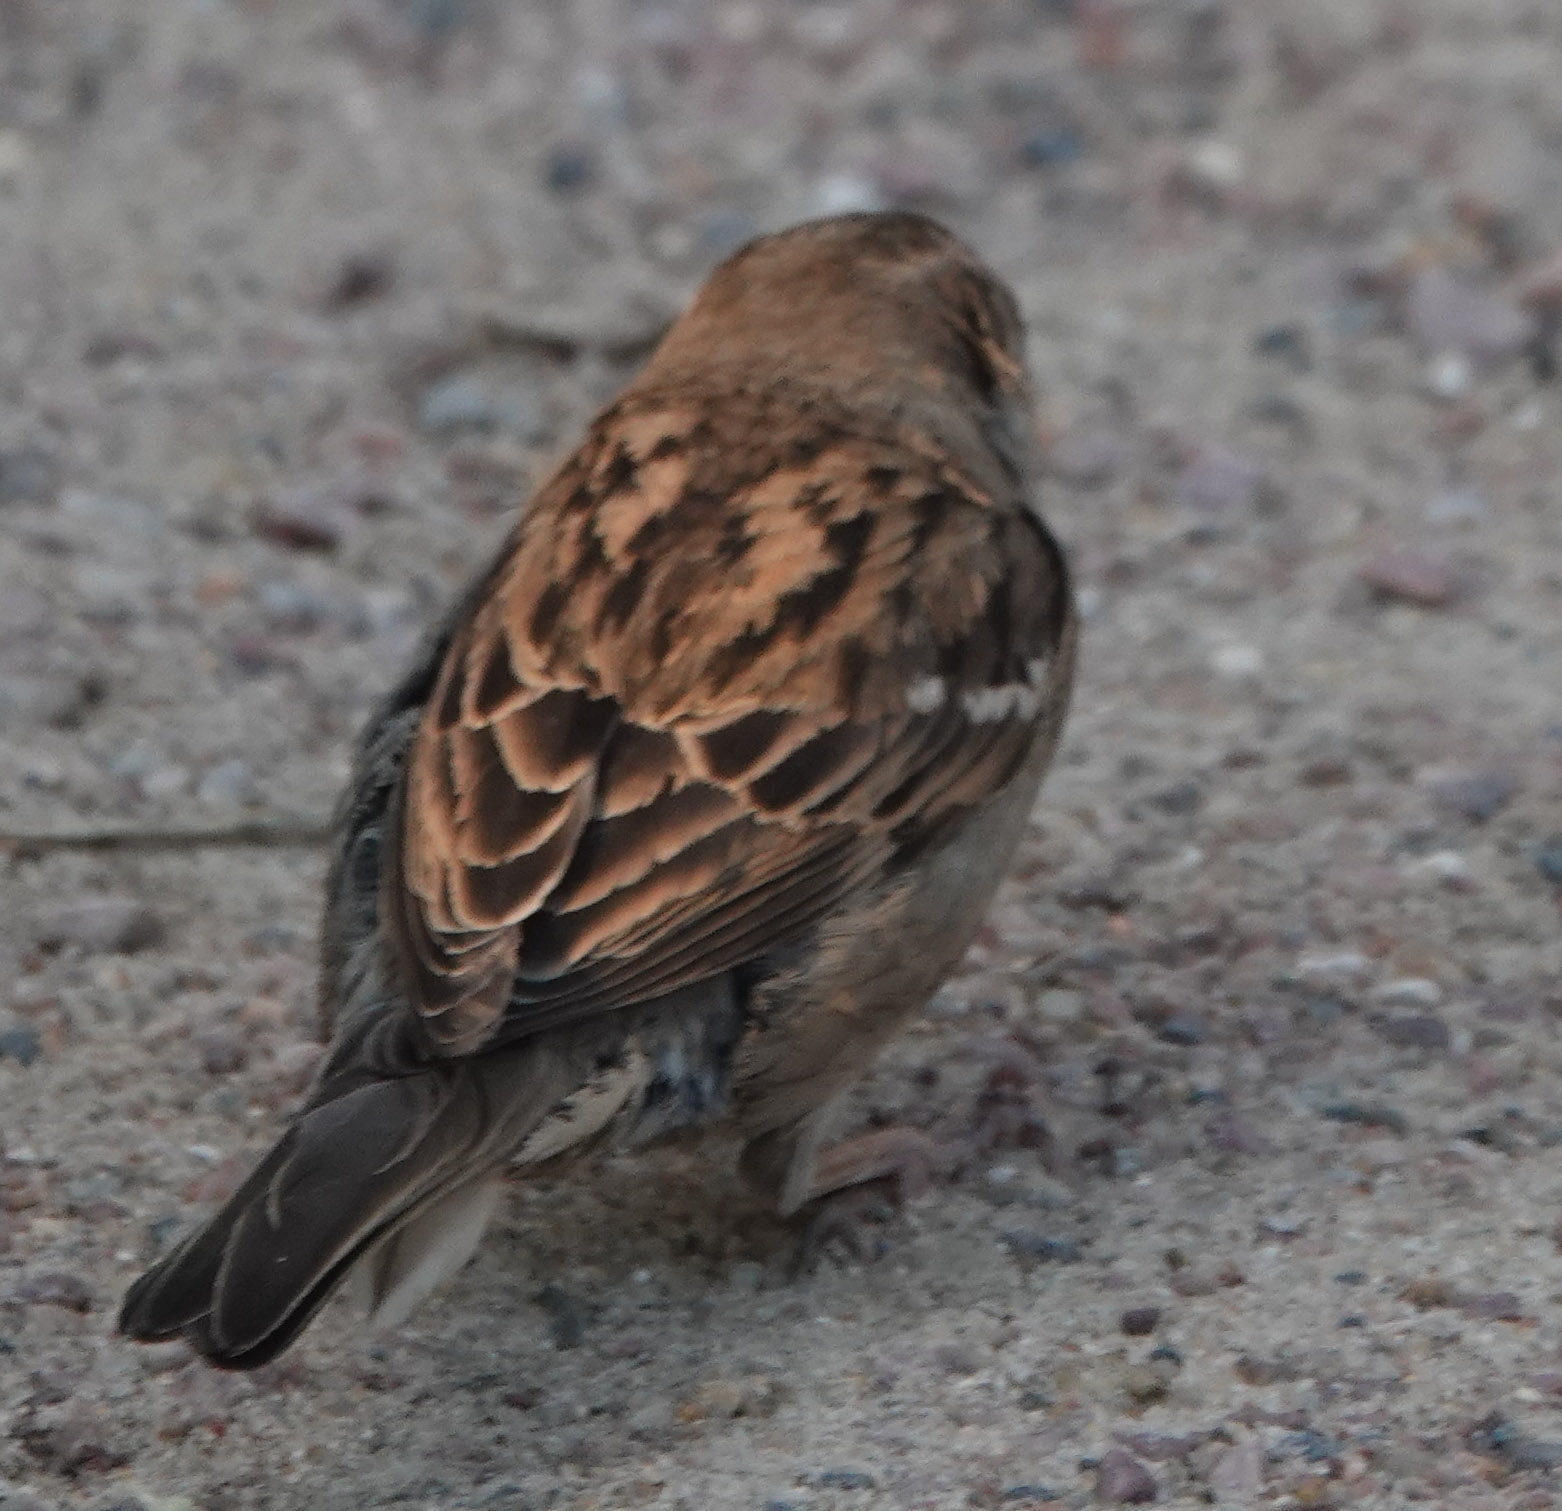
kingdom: Animalia
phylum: Chordata
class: Aves
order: Passeriformes
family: Passeridae
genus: Passer
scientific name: Passer domesticus
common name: House sparrow
